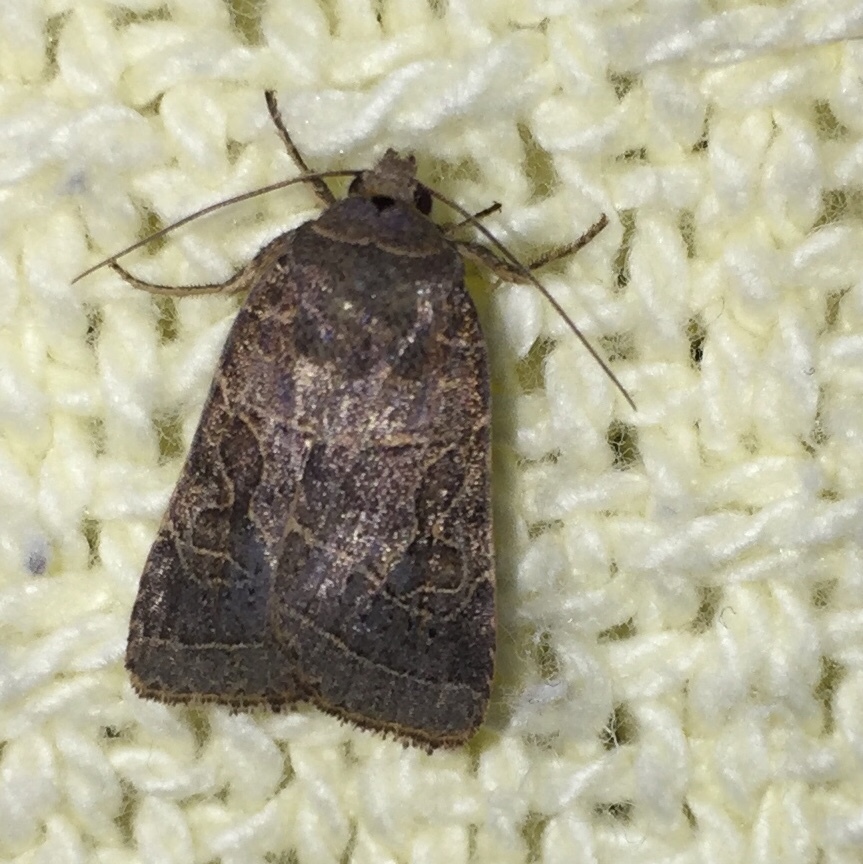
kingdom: Animalia
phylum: Arthropoda
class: Insecta
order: Lepidoptera
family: Noctuidae
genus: Orthodes
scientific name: Orthodes majuscula
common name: Rustic quaker
